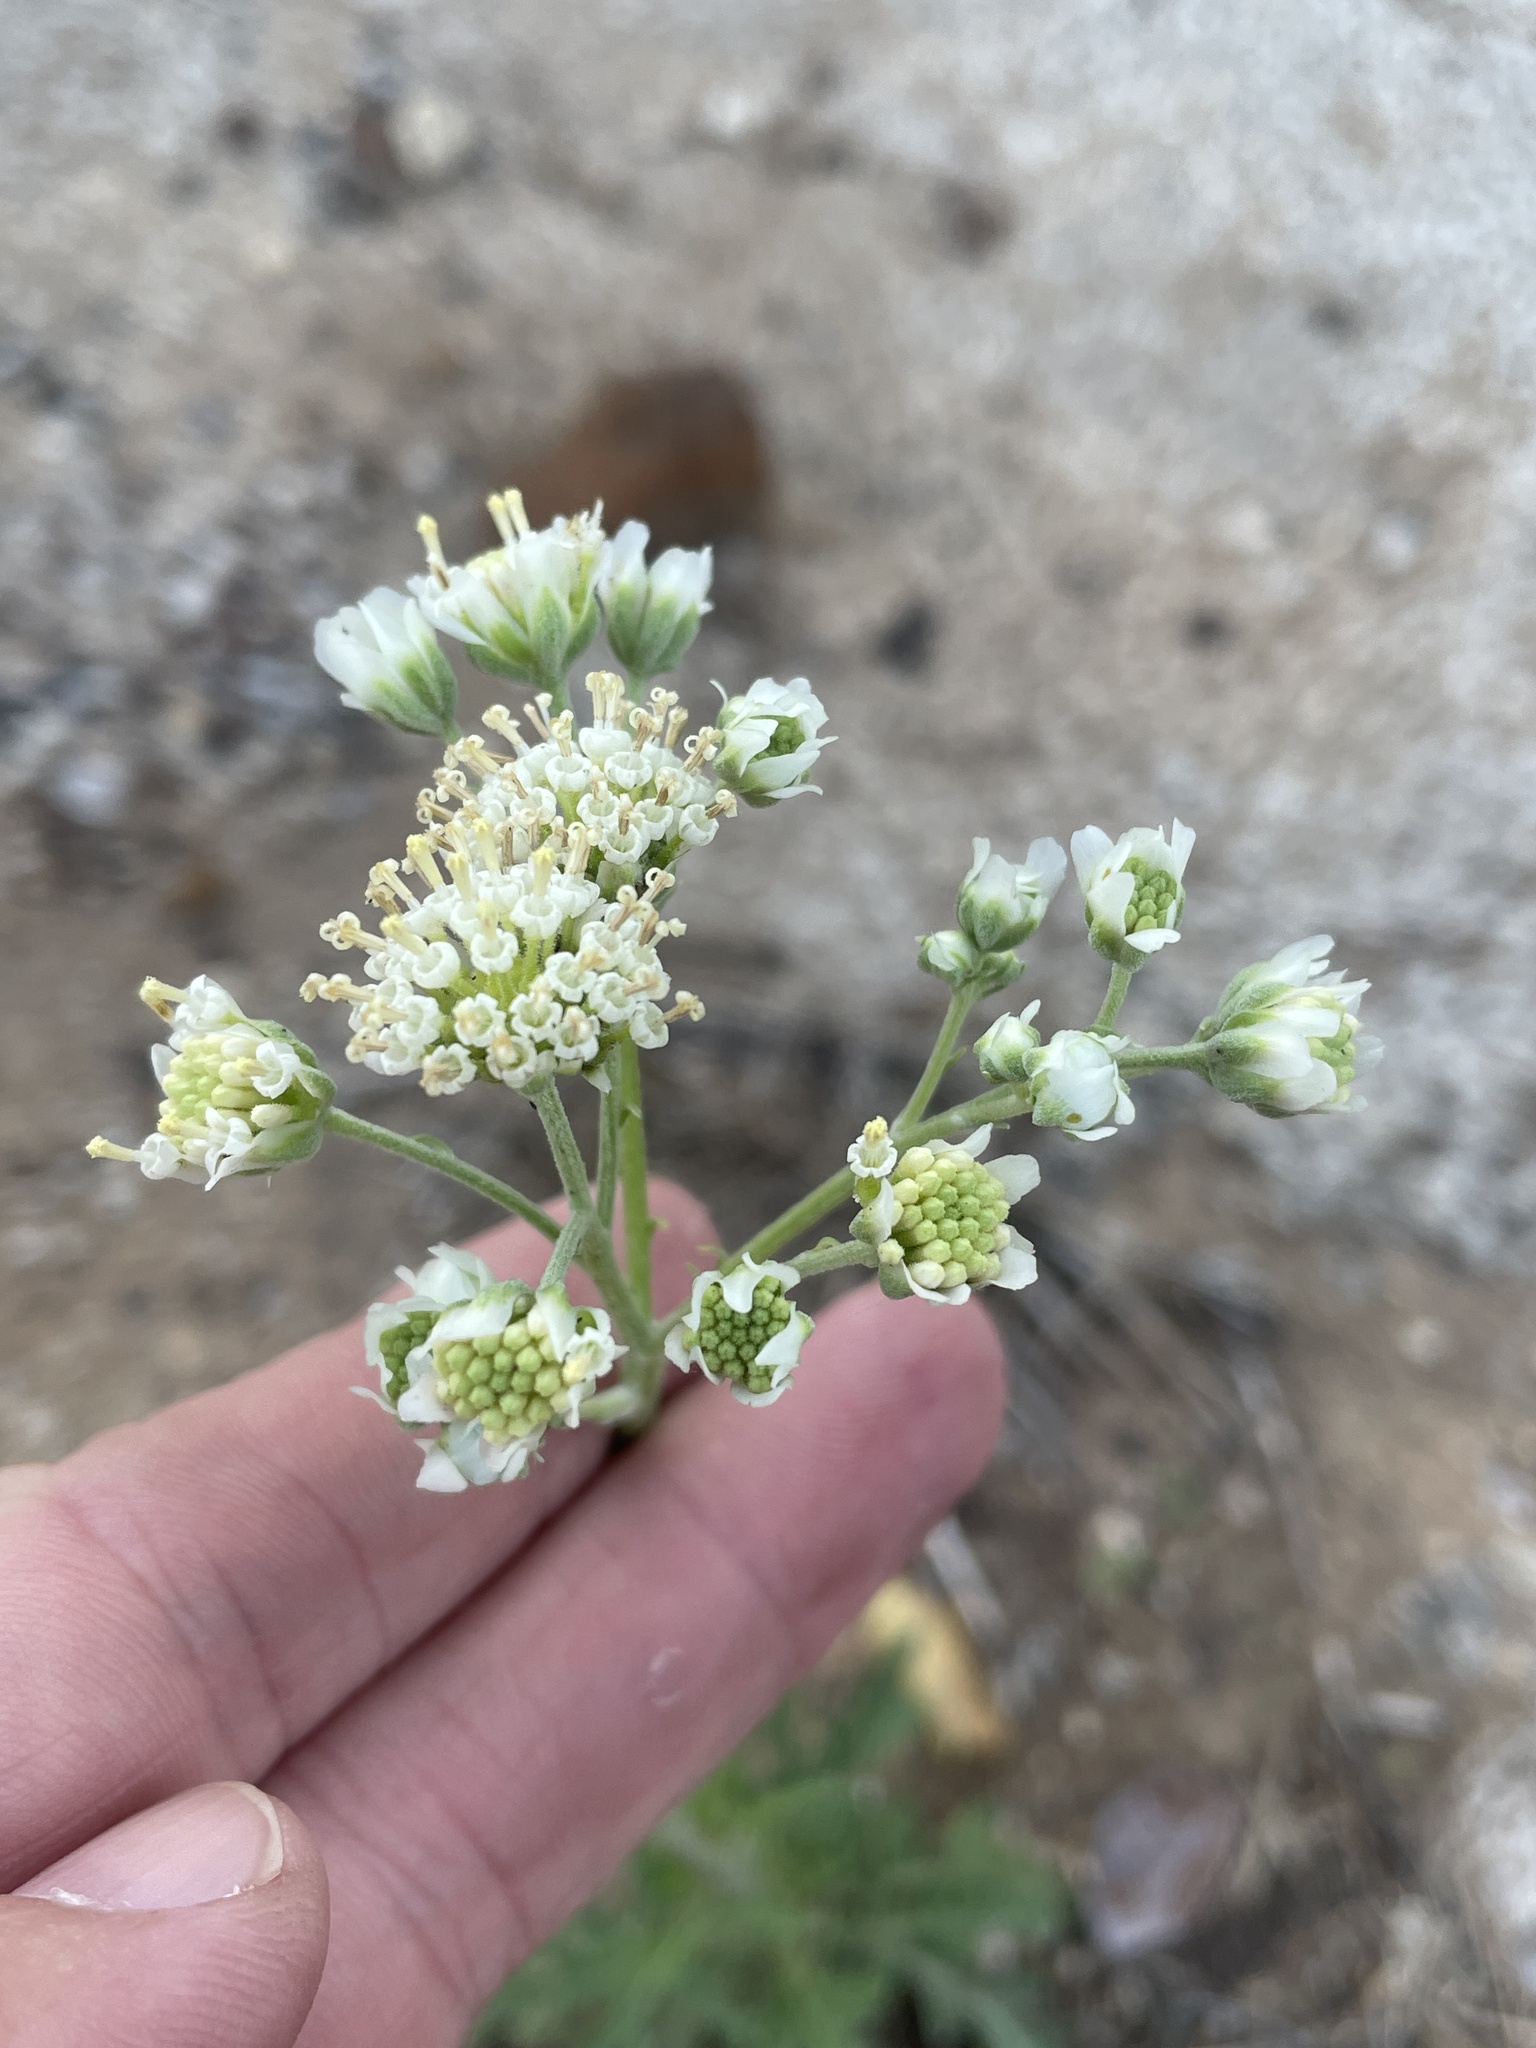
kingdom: Plantae
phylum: Tracheophyta
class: Magnoliopsida
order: Asterales
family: Asteraceae
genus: Hymenopappus
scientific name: Hymenopappus scabiosaeus
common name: Carolina woollywhite
